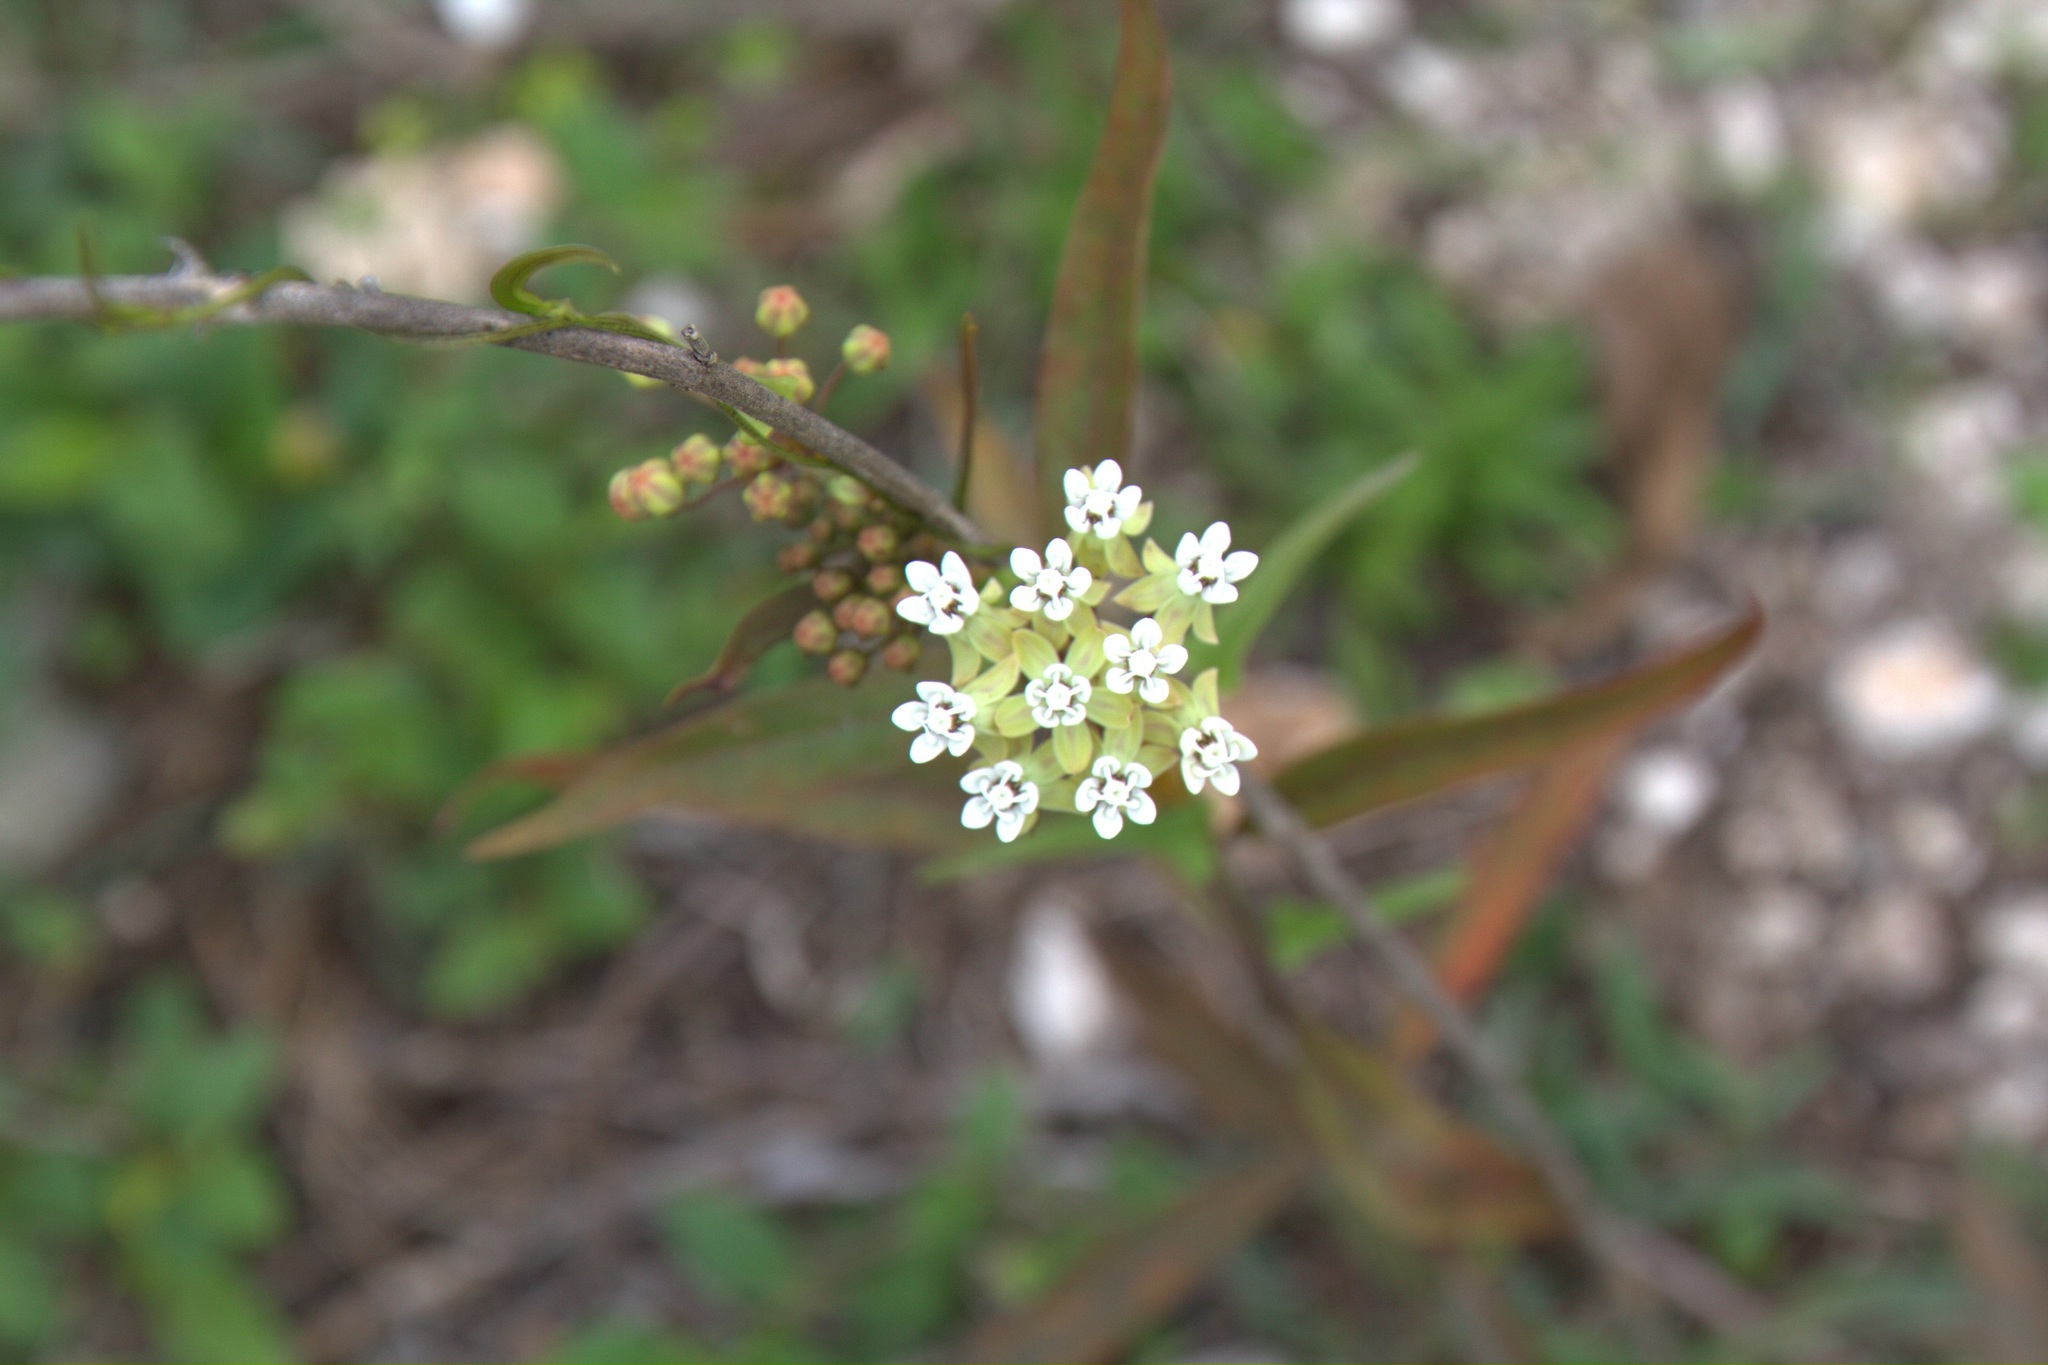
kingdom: Plantae
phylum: Tracheophyta
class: Magnoliopsida
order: Gentianales
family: Apocynaceae
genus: Asclepias
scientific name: Asclepias nivea
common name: Ipecacuanha
